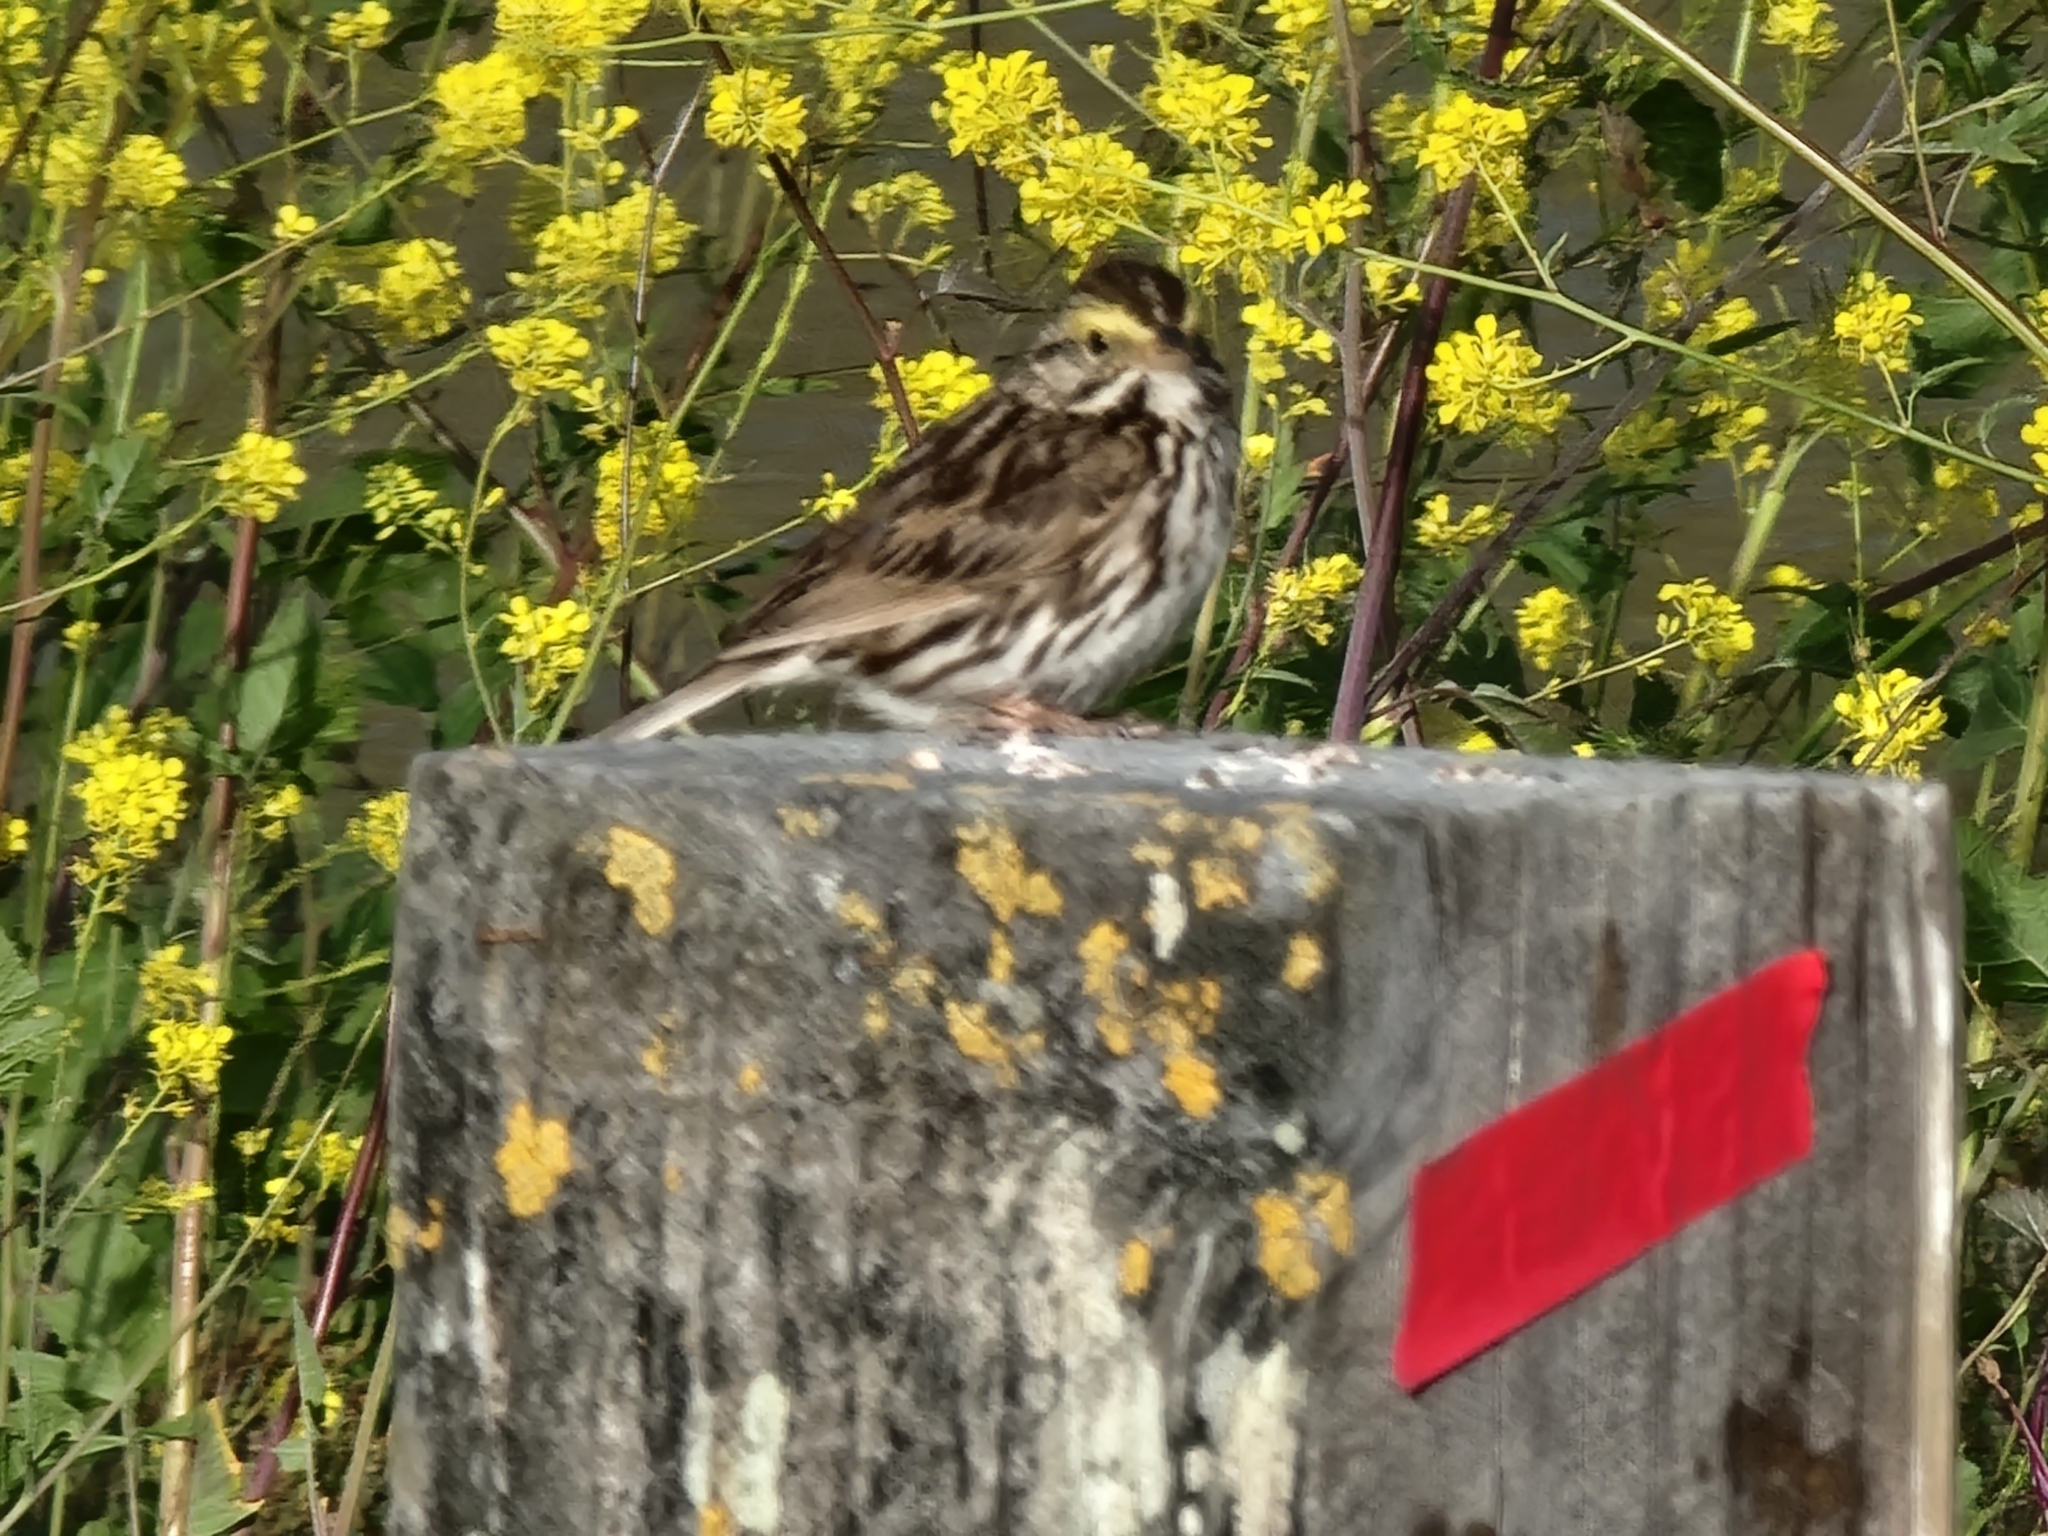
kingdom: Animalia
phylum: Chordata
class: Aves
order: Passeriformes
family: Passerellidae
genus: Passerculus
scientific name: Passerculus sandwichensis
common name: Savannah sparrow
